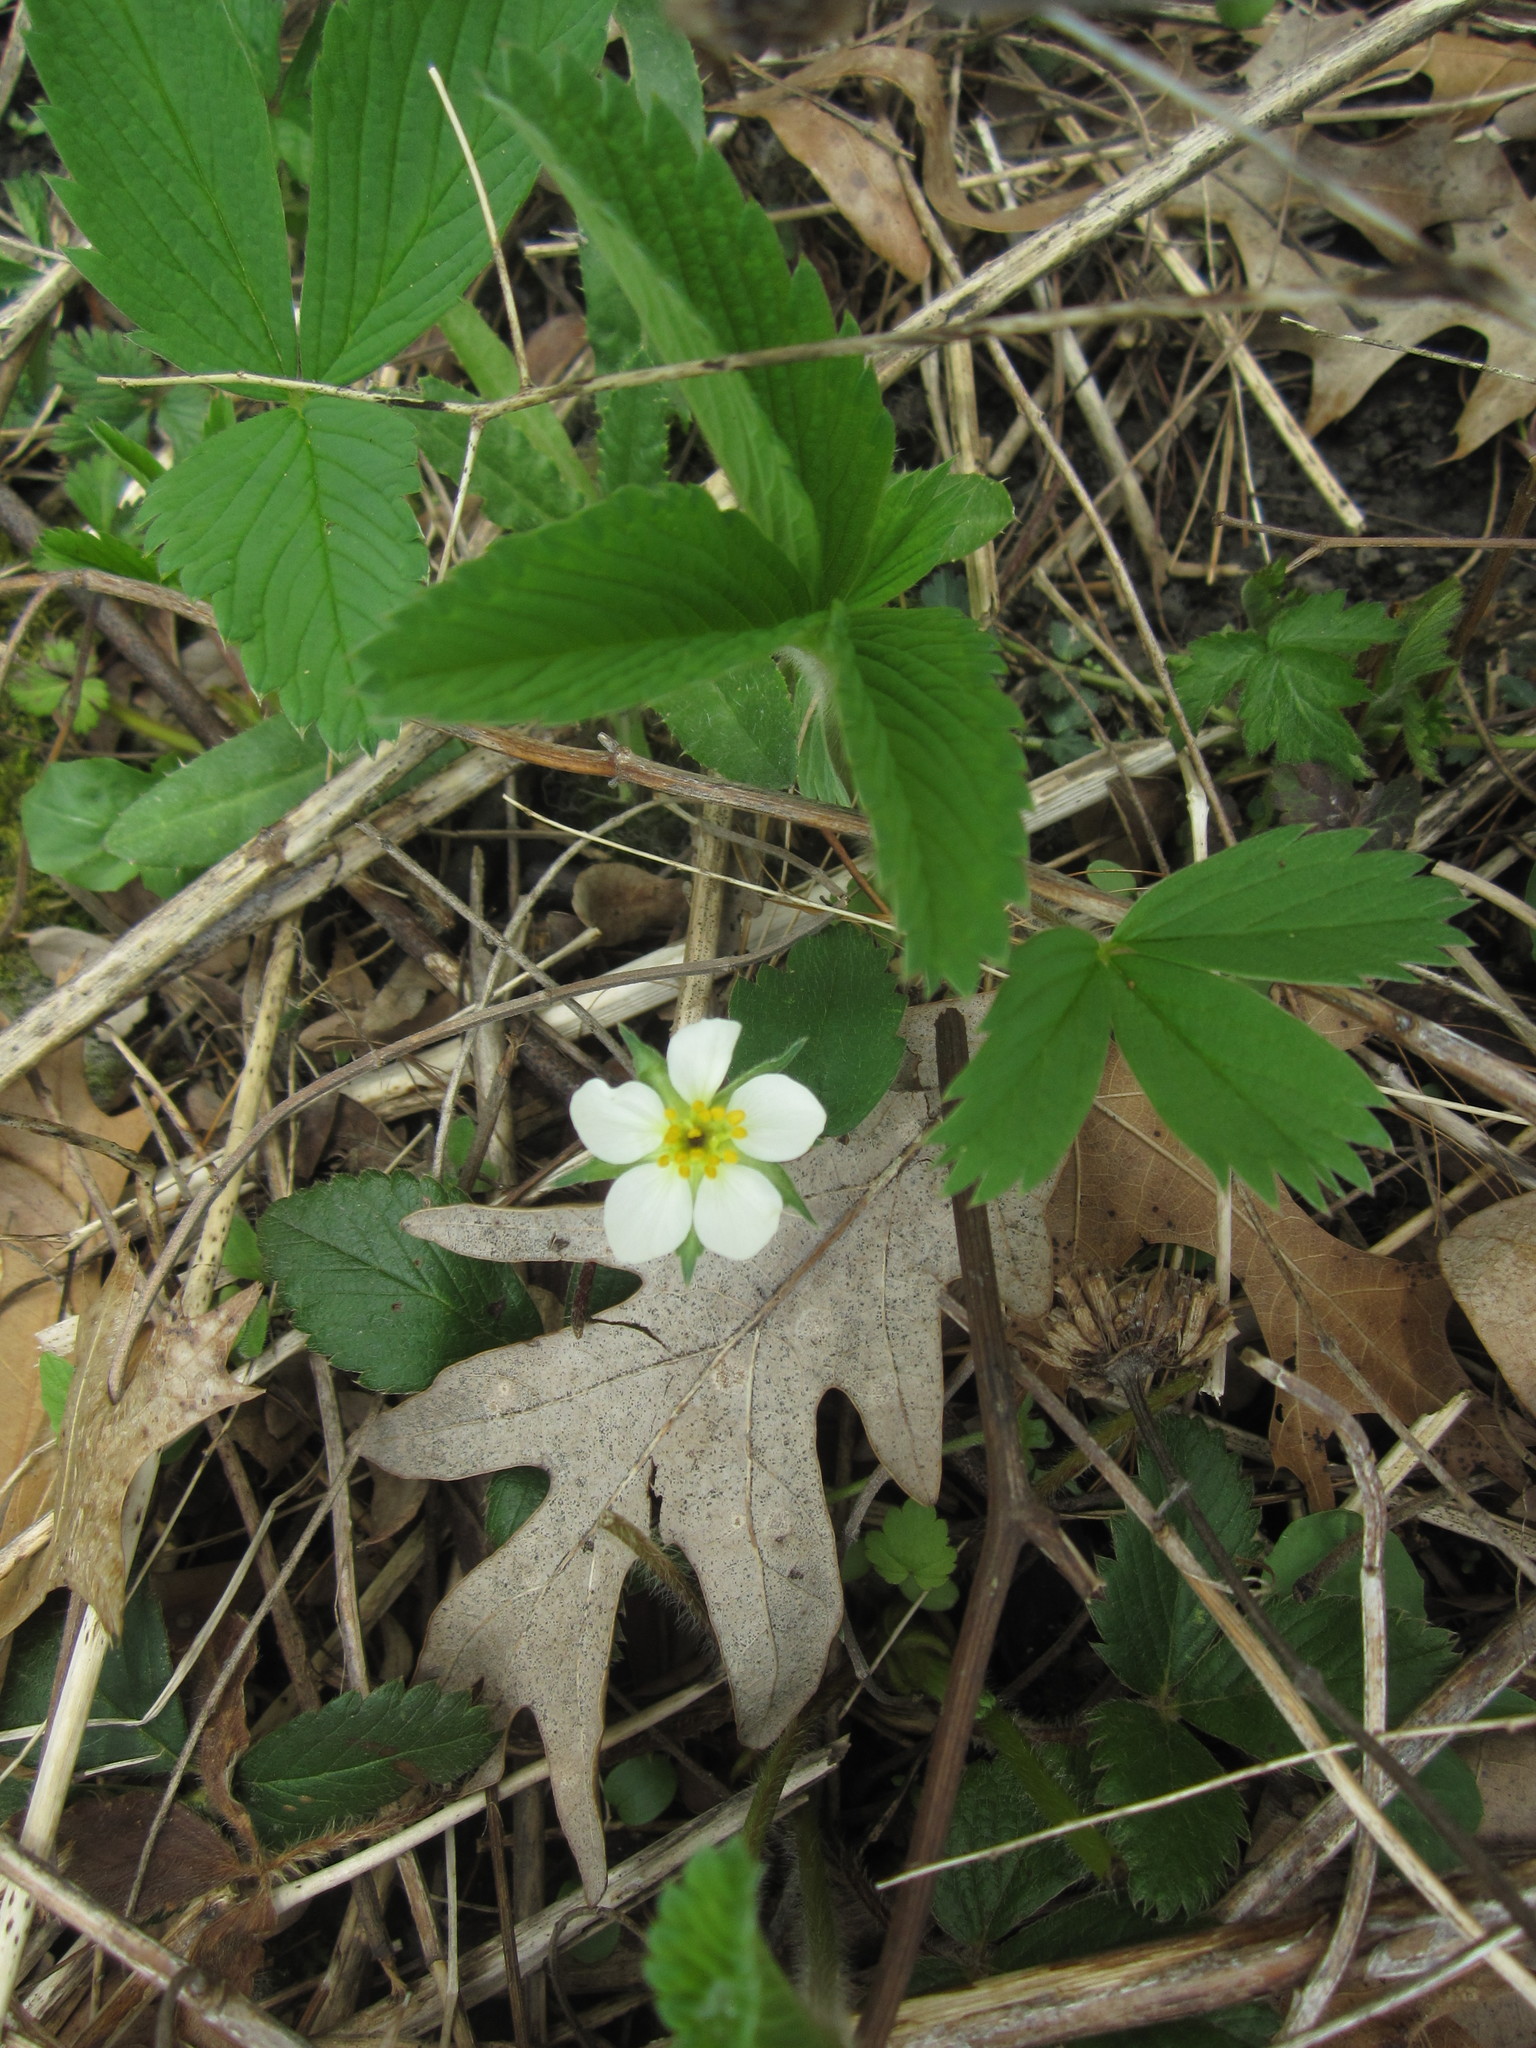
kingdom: Plantae
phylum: Tracheophyta
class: Magnoliopsida
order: Rosales
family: Rosaceae
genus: Fragaria
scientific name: Fragaria virginiana
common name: Thickleaved wild strawberry
